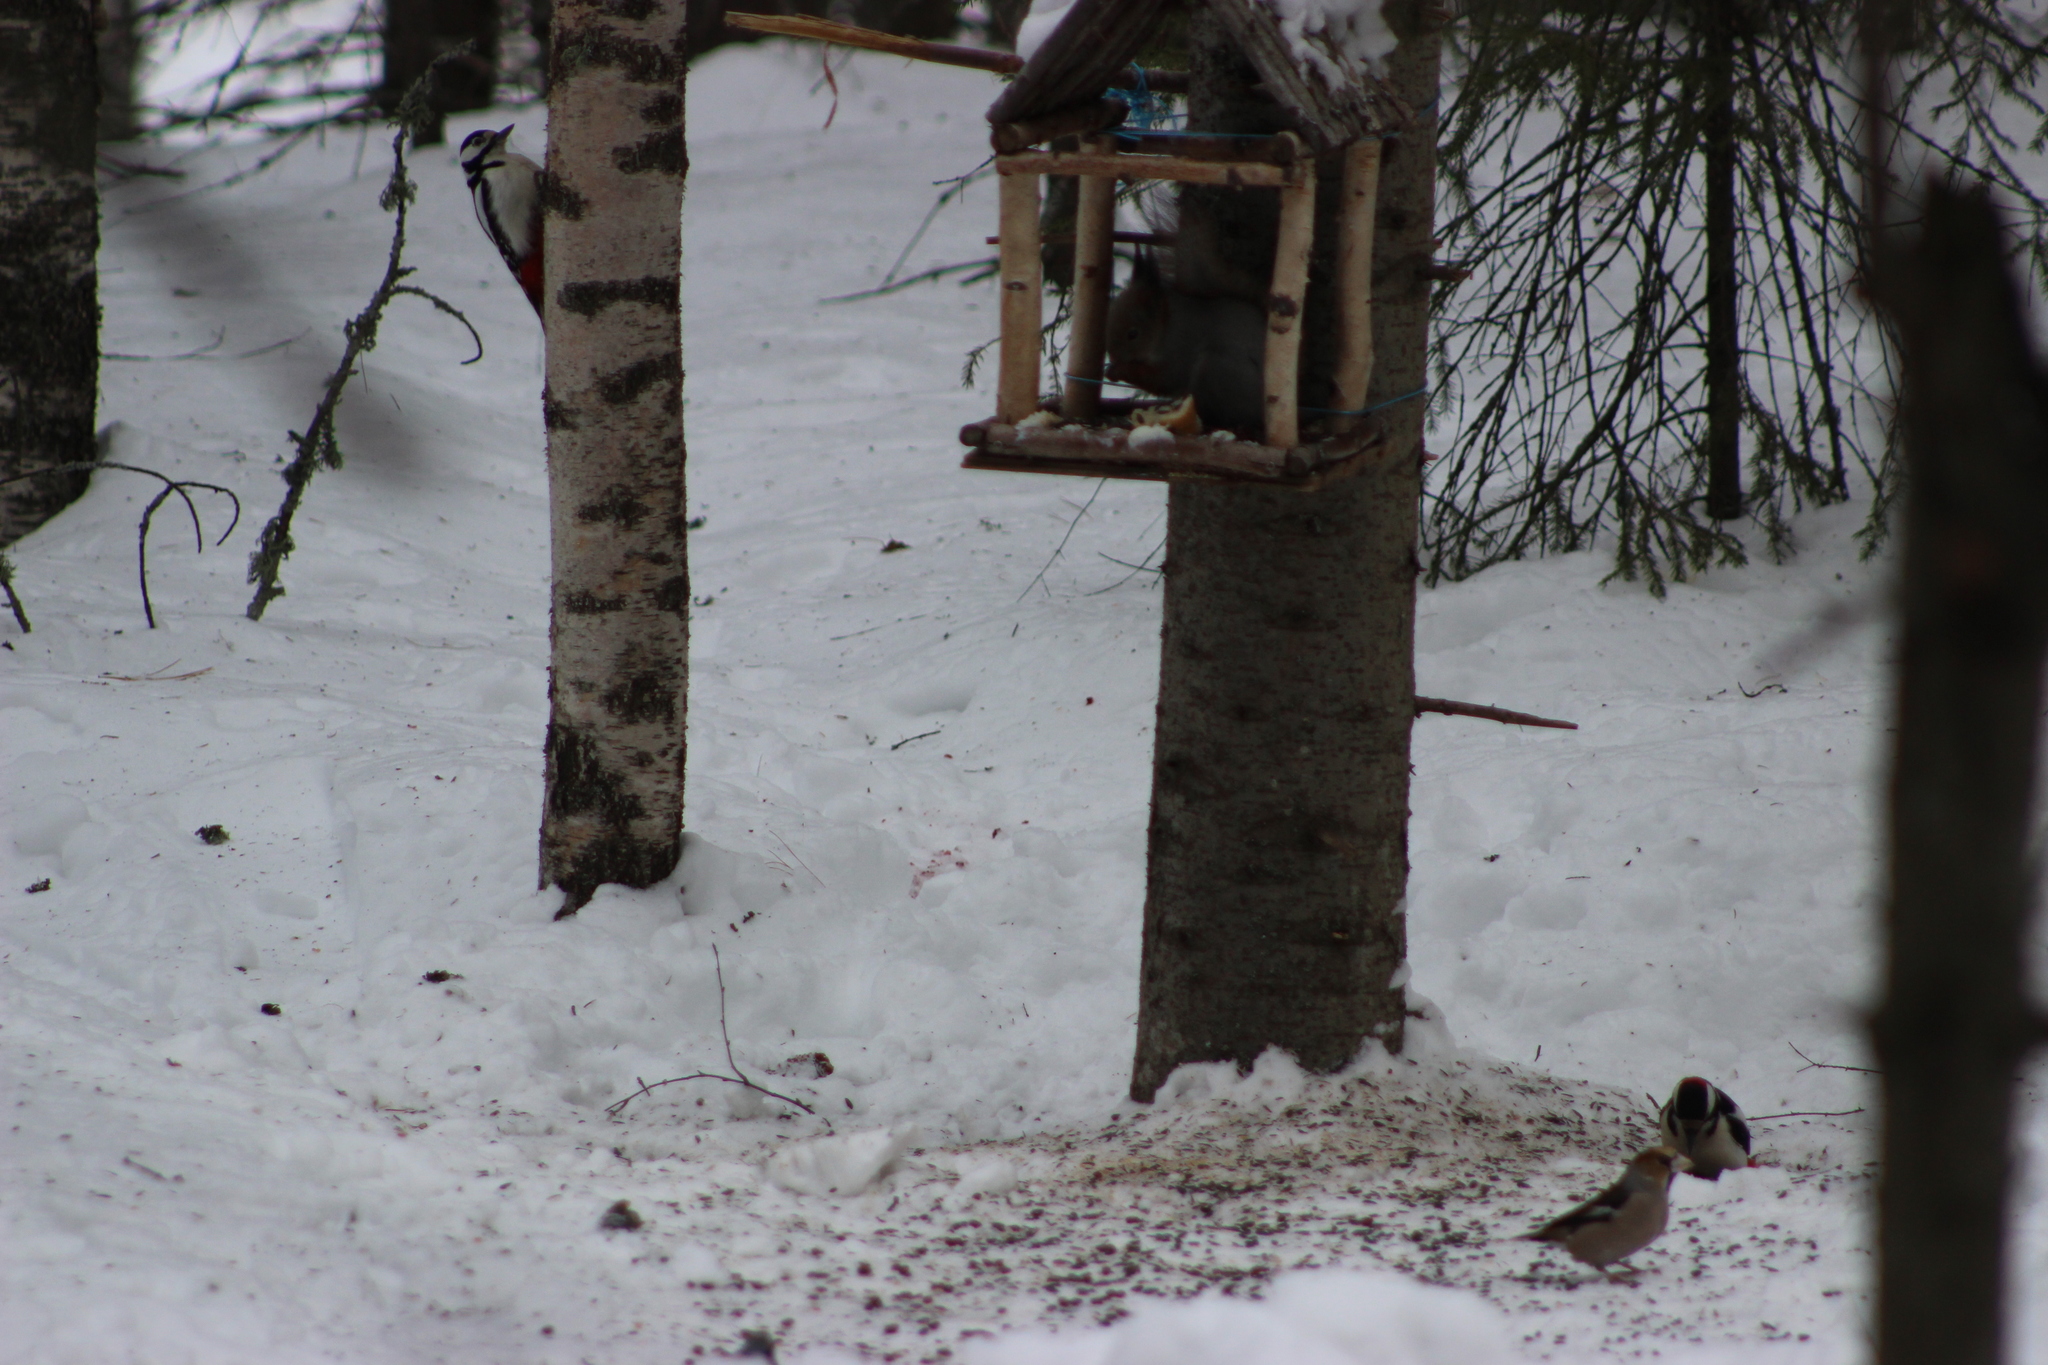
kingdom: Animalia
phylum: Chordata
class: Aves
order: Passeriformes
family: Fringillidae
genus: Coccothraustes
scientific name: Coccothraustes coccothraustes
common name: Hawfinch
